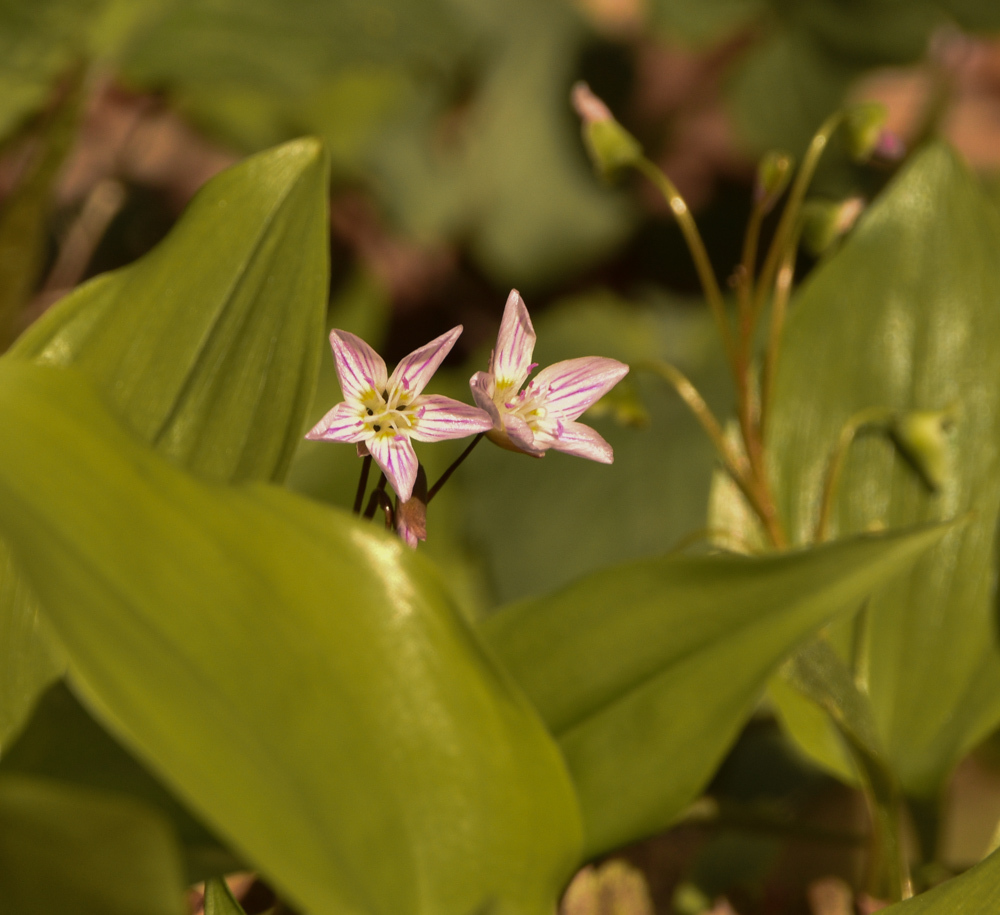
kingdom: Plantae
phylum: Tracheophyta
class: Magnoliopsida
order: Caryophyllales
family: Montiaceae
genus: Claytonia
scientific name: Claytonia caroliniana
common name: Carolina spring beauty
